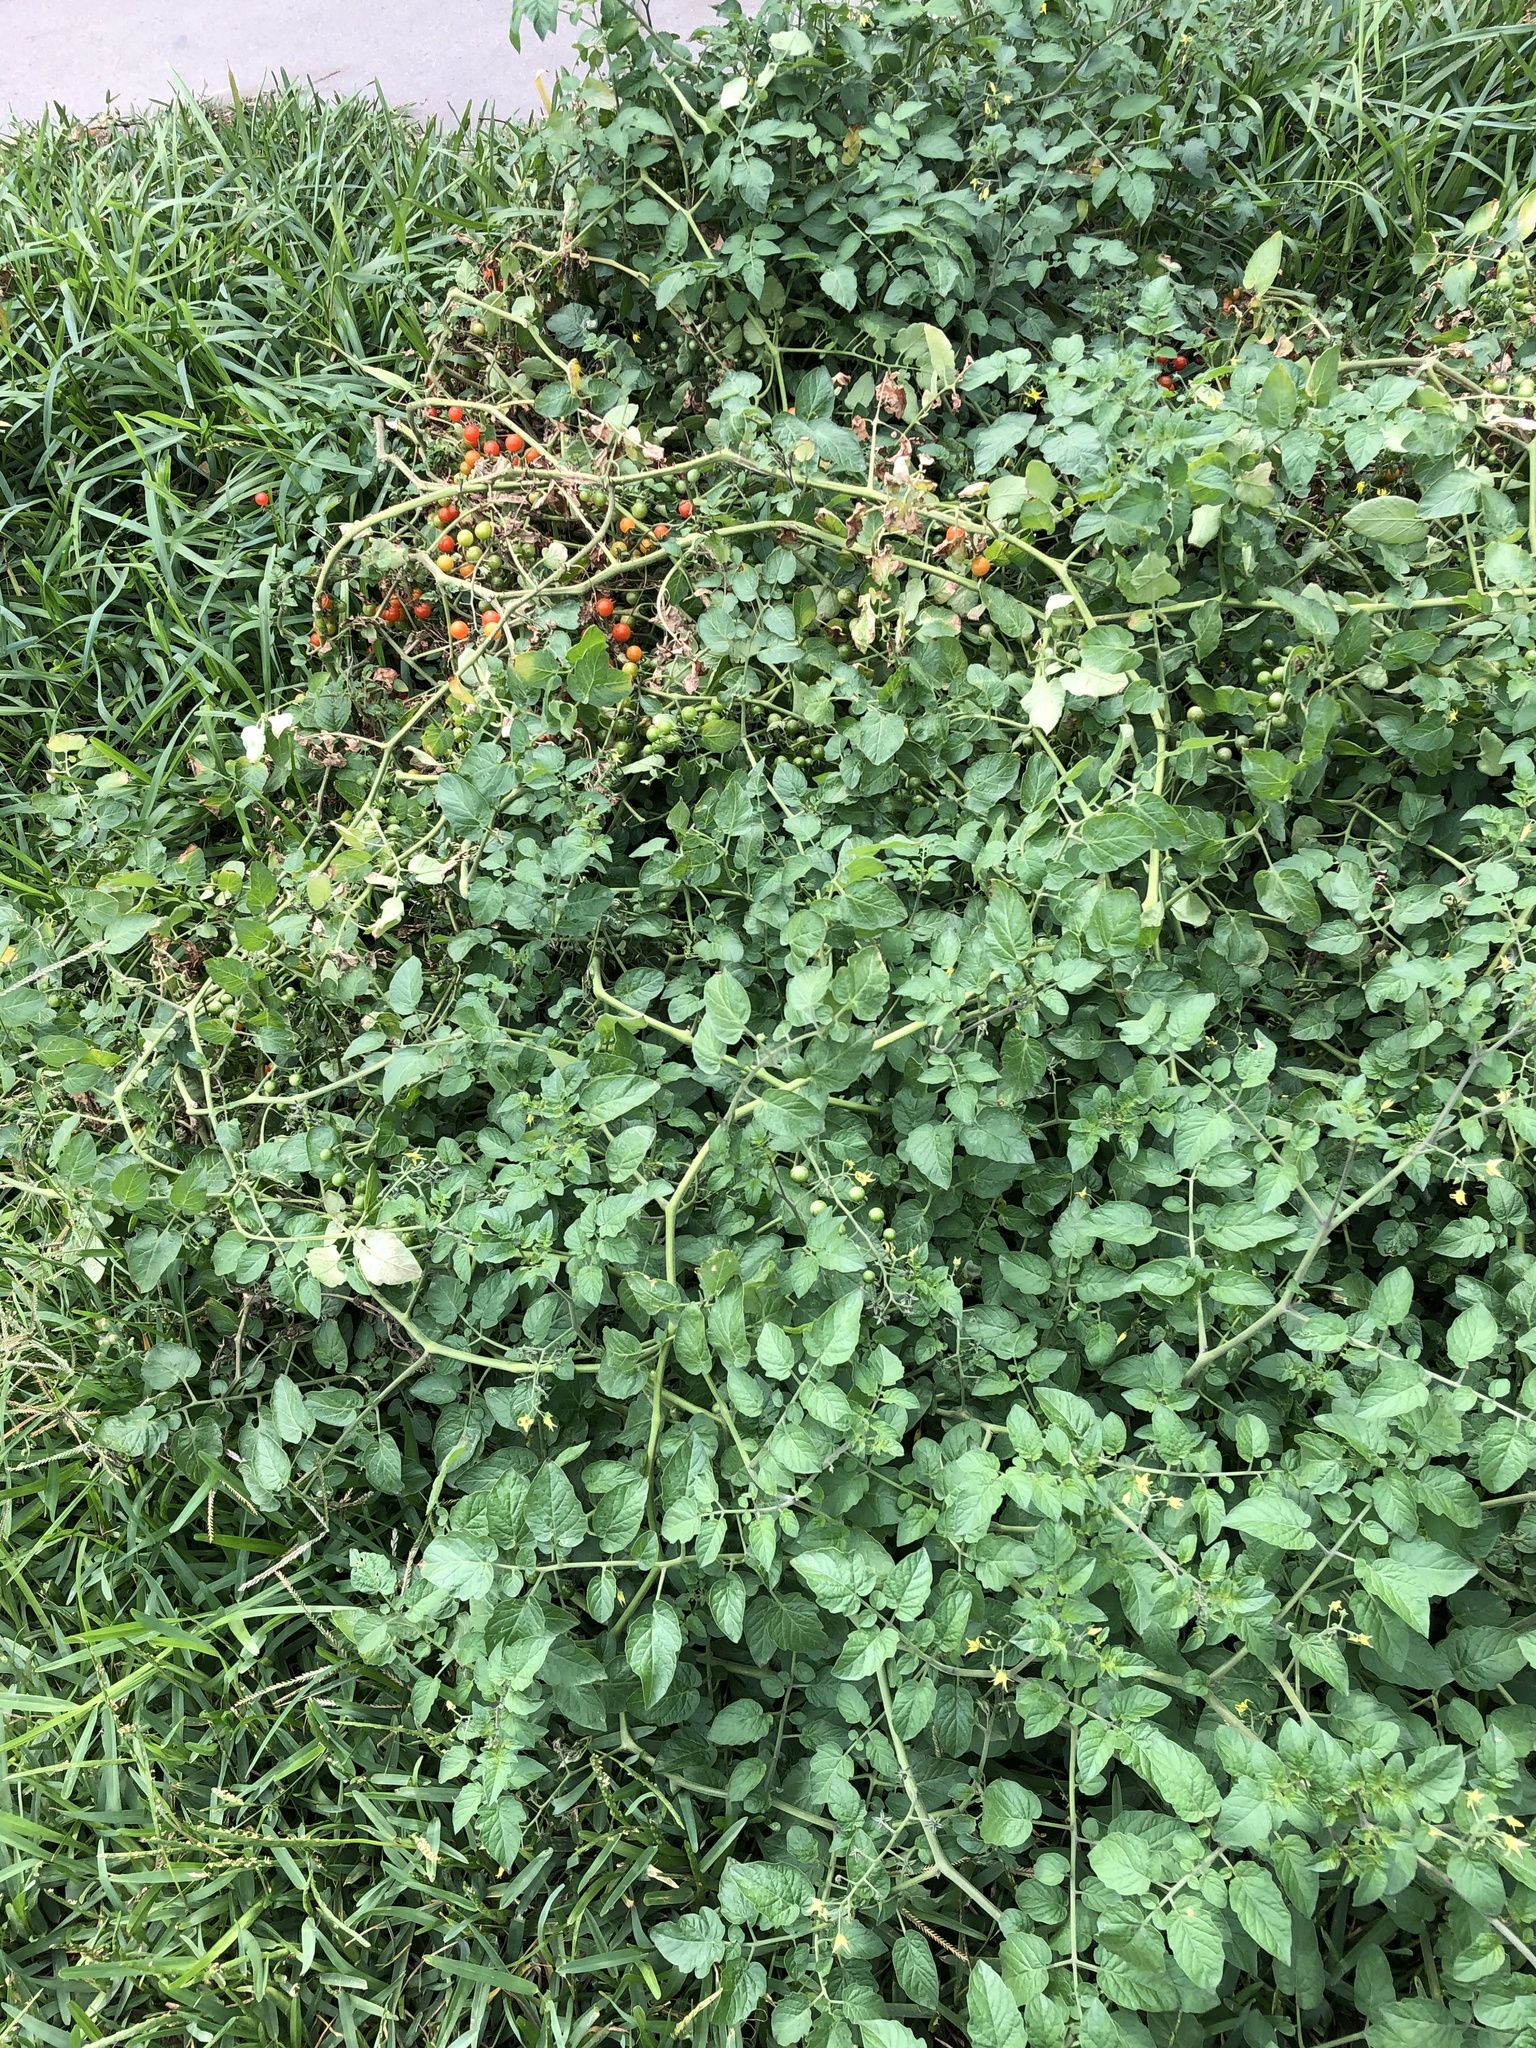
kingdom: Plantae
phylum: Tracheophyta
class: Magnoliopsida
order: Solanales
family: Solanaceae
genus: Solanum
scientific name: Solanum lycopersicum
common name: Garden tomato
